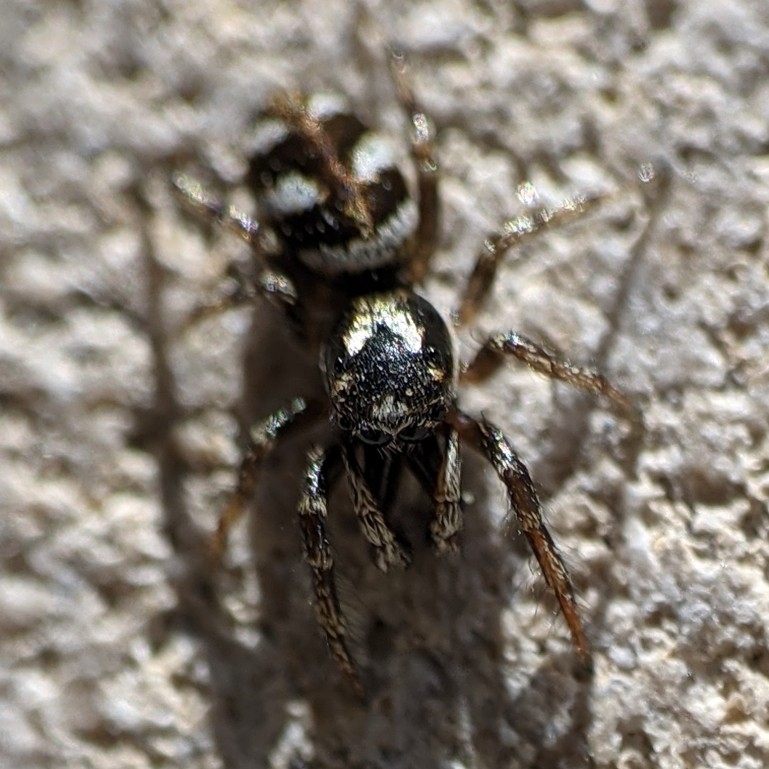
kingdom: Animalia
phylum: Arthropoda
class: Arachnida
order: Araneae
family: Salticidae
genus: Salticus
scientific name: Salticus scenicus
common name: Zebra jumper
